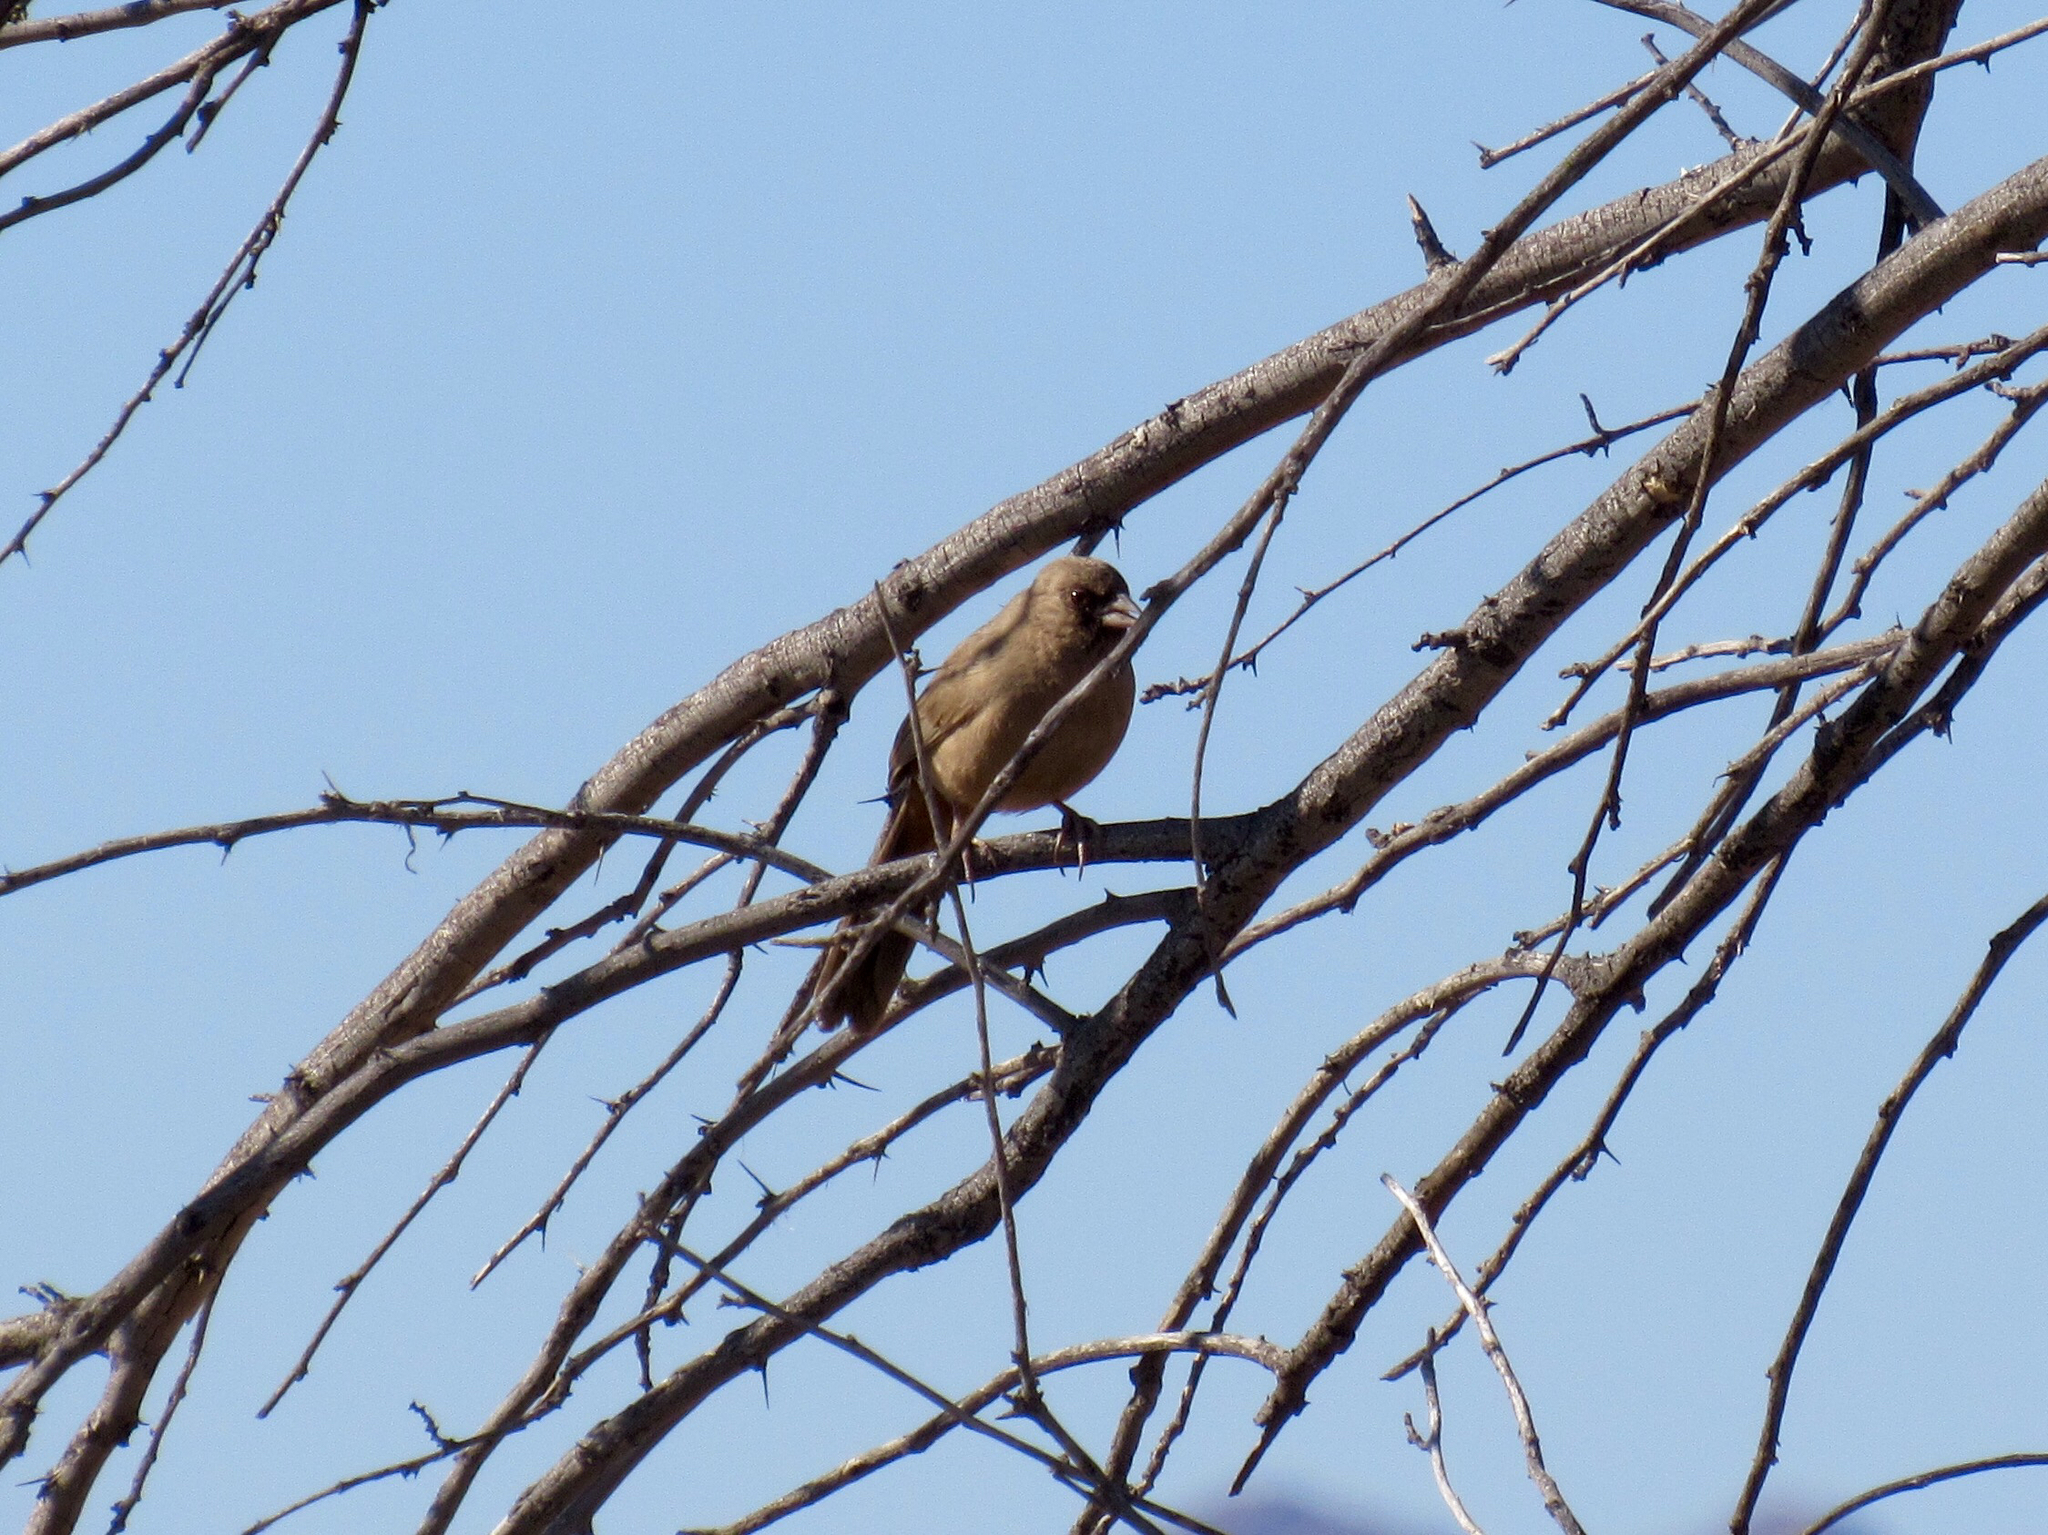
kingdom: Animalia
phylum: Chordata
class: Aves
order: Passeriformes
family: Passerellidae
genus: Melozone
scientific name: Melozone aberti
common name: Abert's towhee
